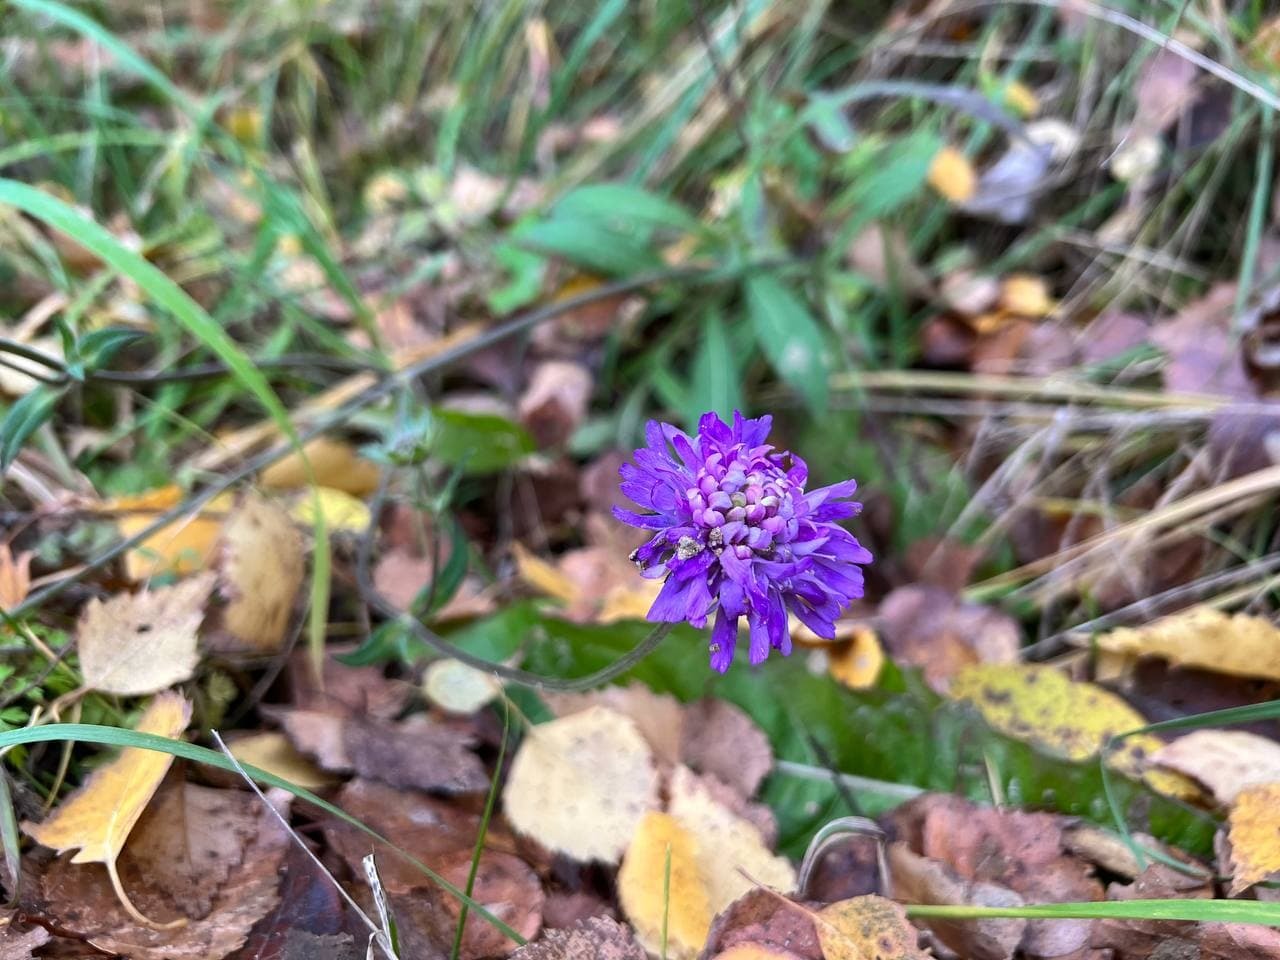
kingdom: Plantae
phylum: Tracheophyta
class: Magnoliopsida
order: Dipsacales
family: Caprifoliaceae
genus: Knautia
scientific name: Knautia arvensis
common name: Field scabiosa
